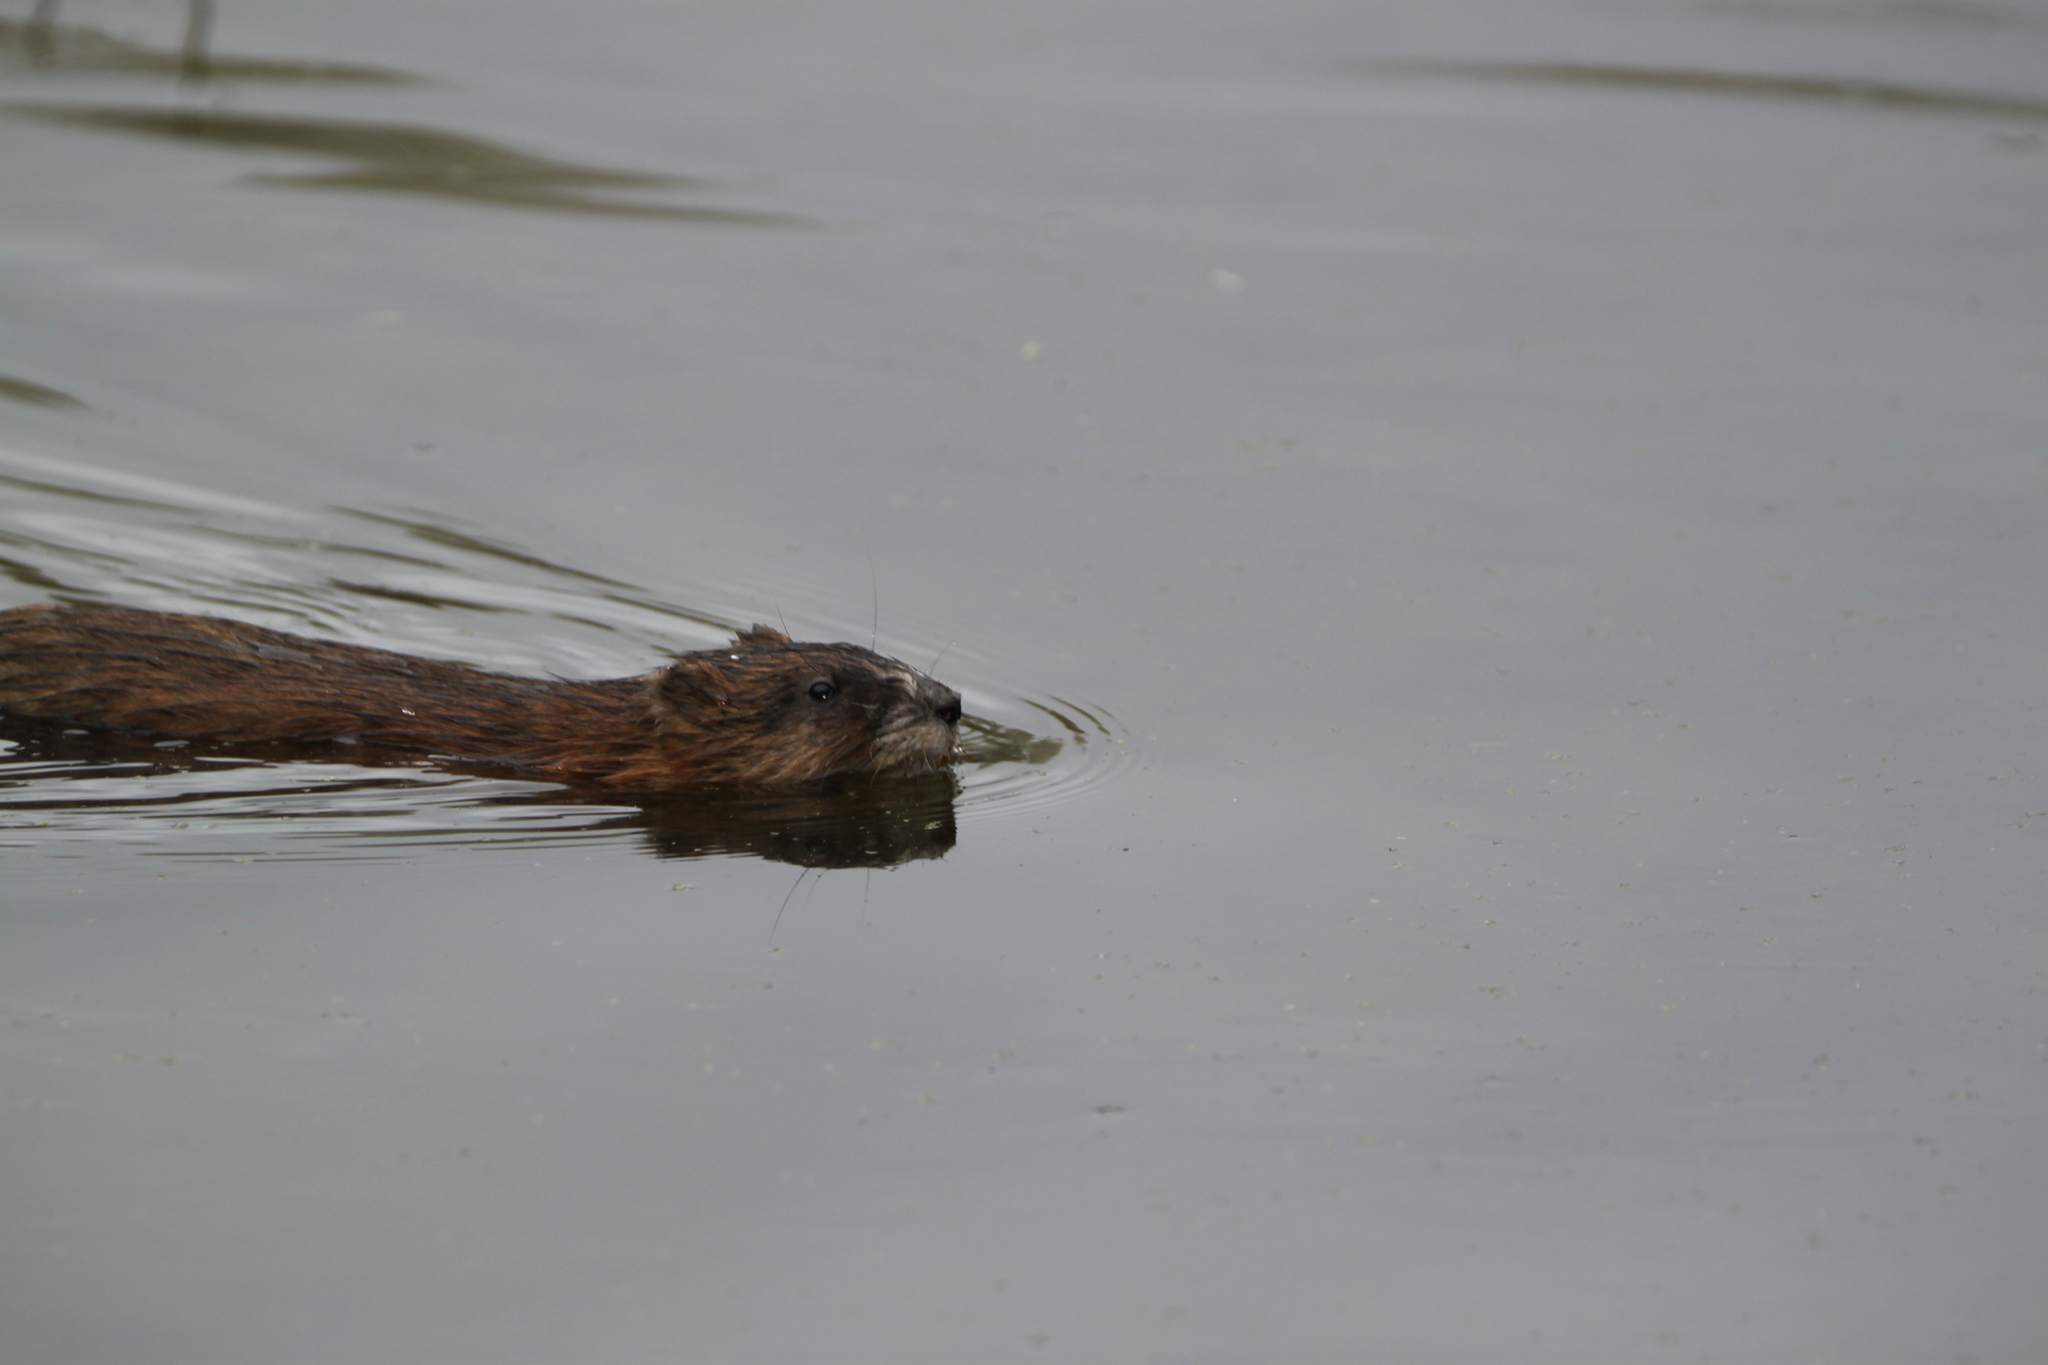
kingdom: Animalia
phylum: Chordata
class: Mammalia
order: Rodentia
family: Cricetidae
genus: Ondatra
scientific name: Ondatra zibethicus
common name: Muskrat
